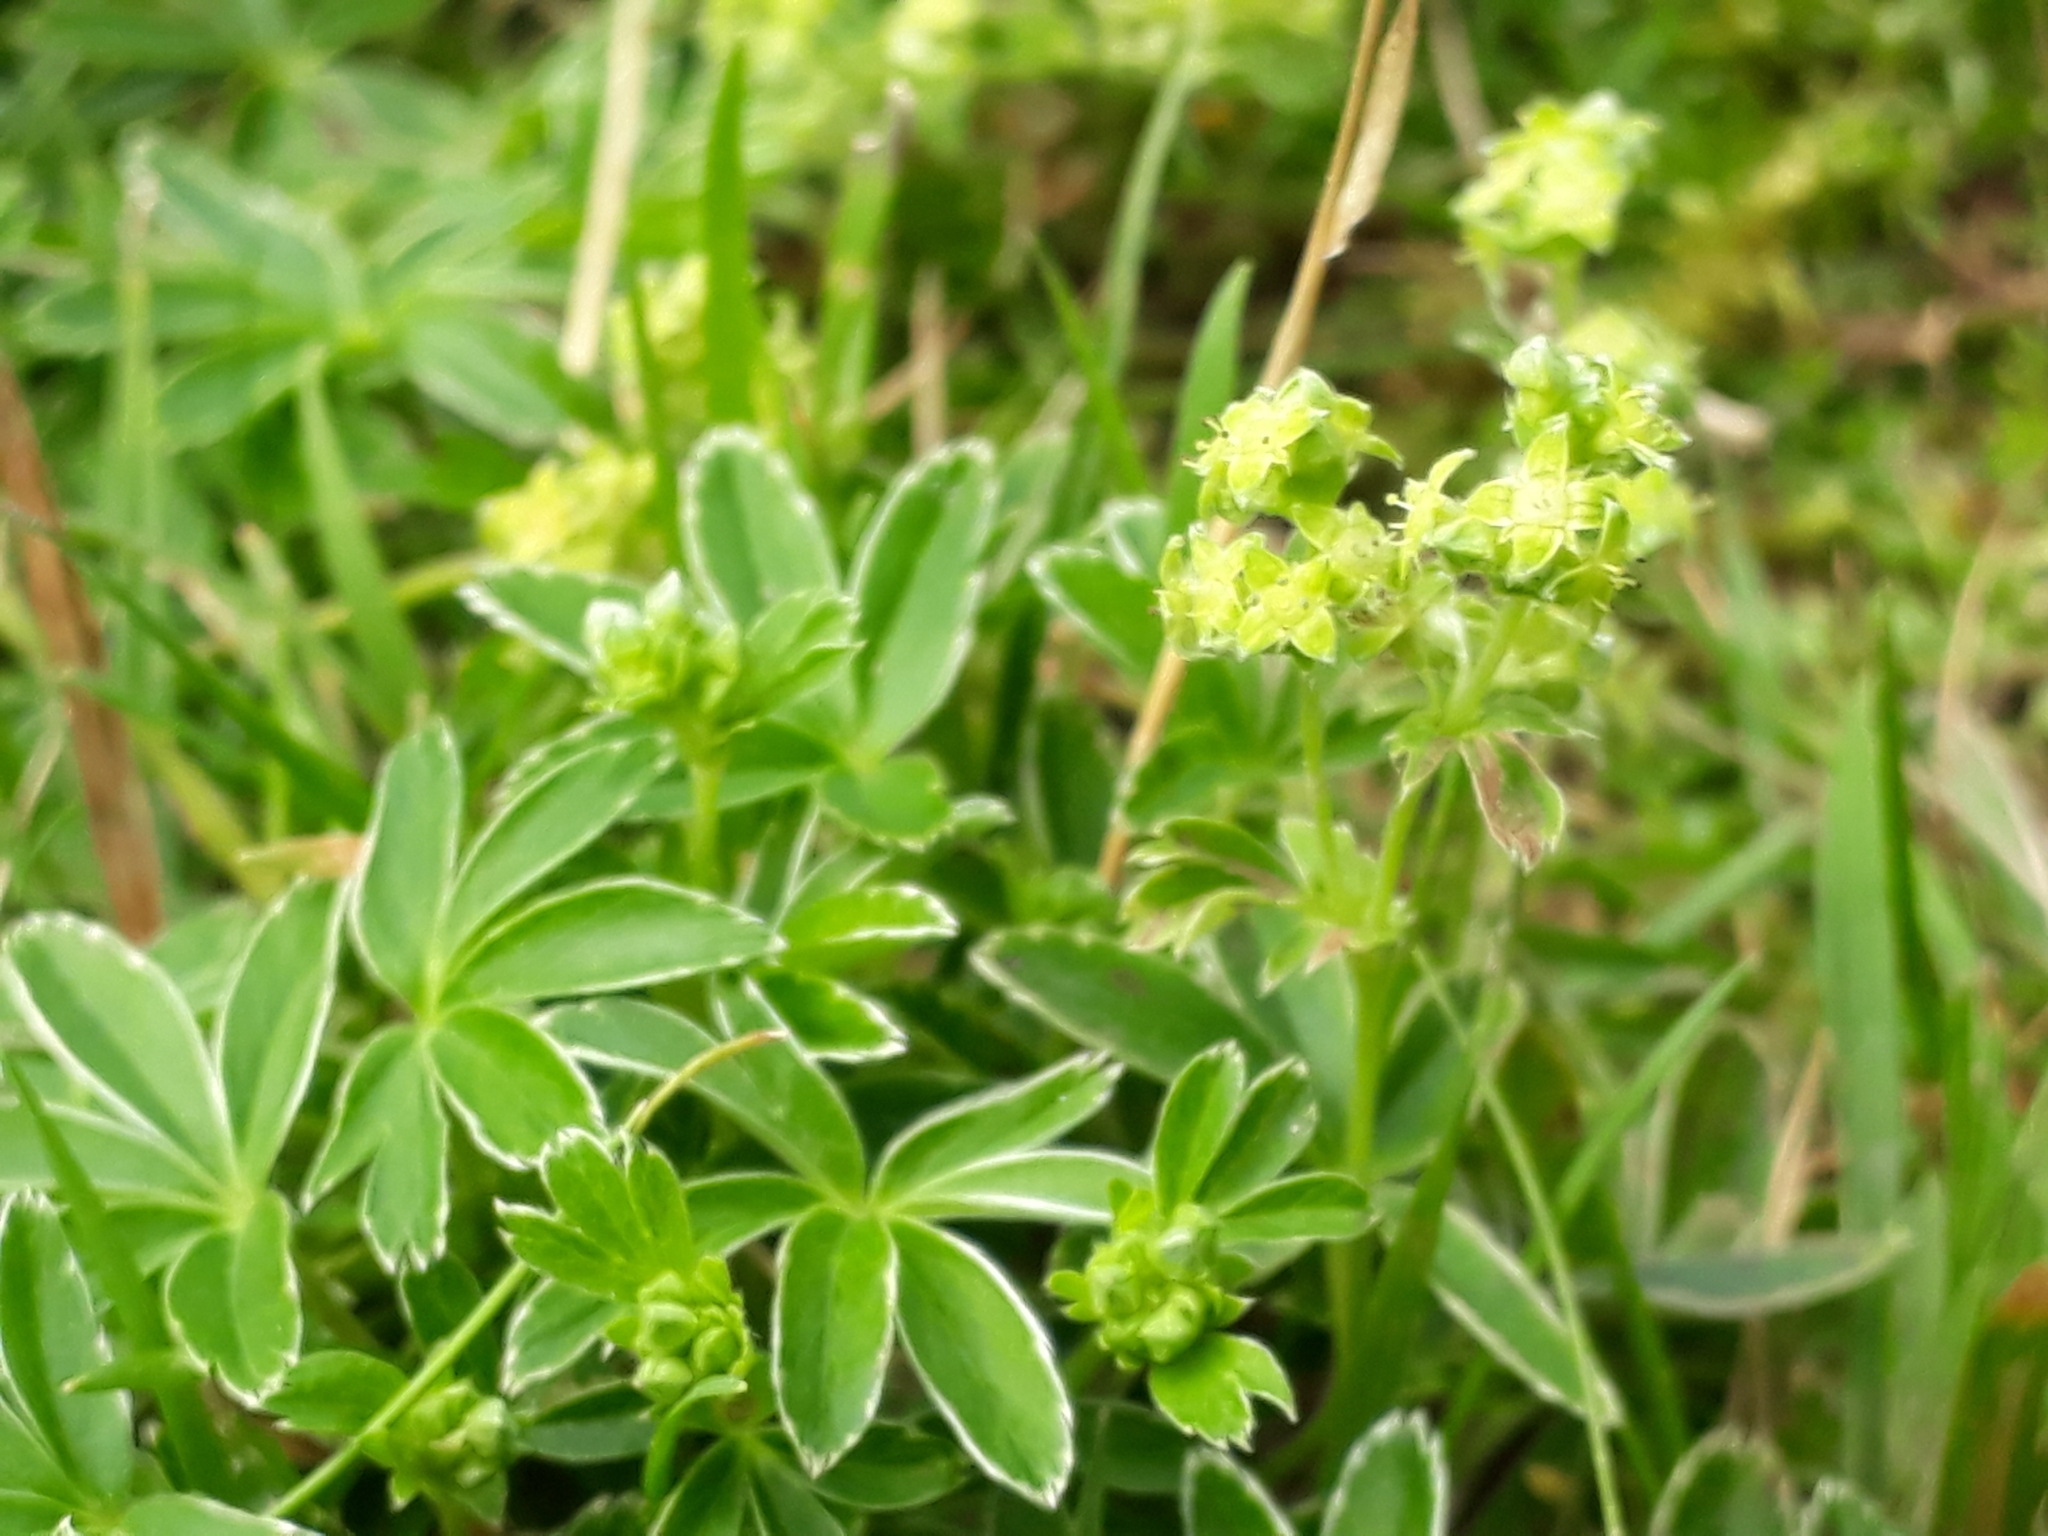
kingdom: Plantae
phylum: Tracheophyta
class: Magnoliopsida
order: Rosales
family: Rosaceae
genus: Alchemilla
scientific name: Alchemilla alpina
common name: Alpine lady's-mantle
